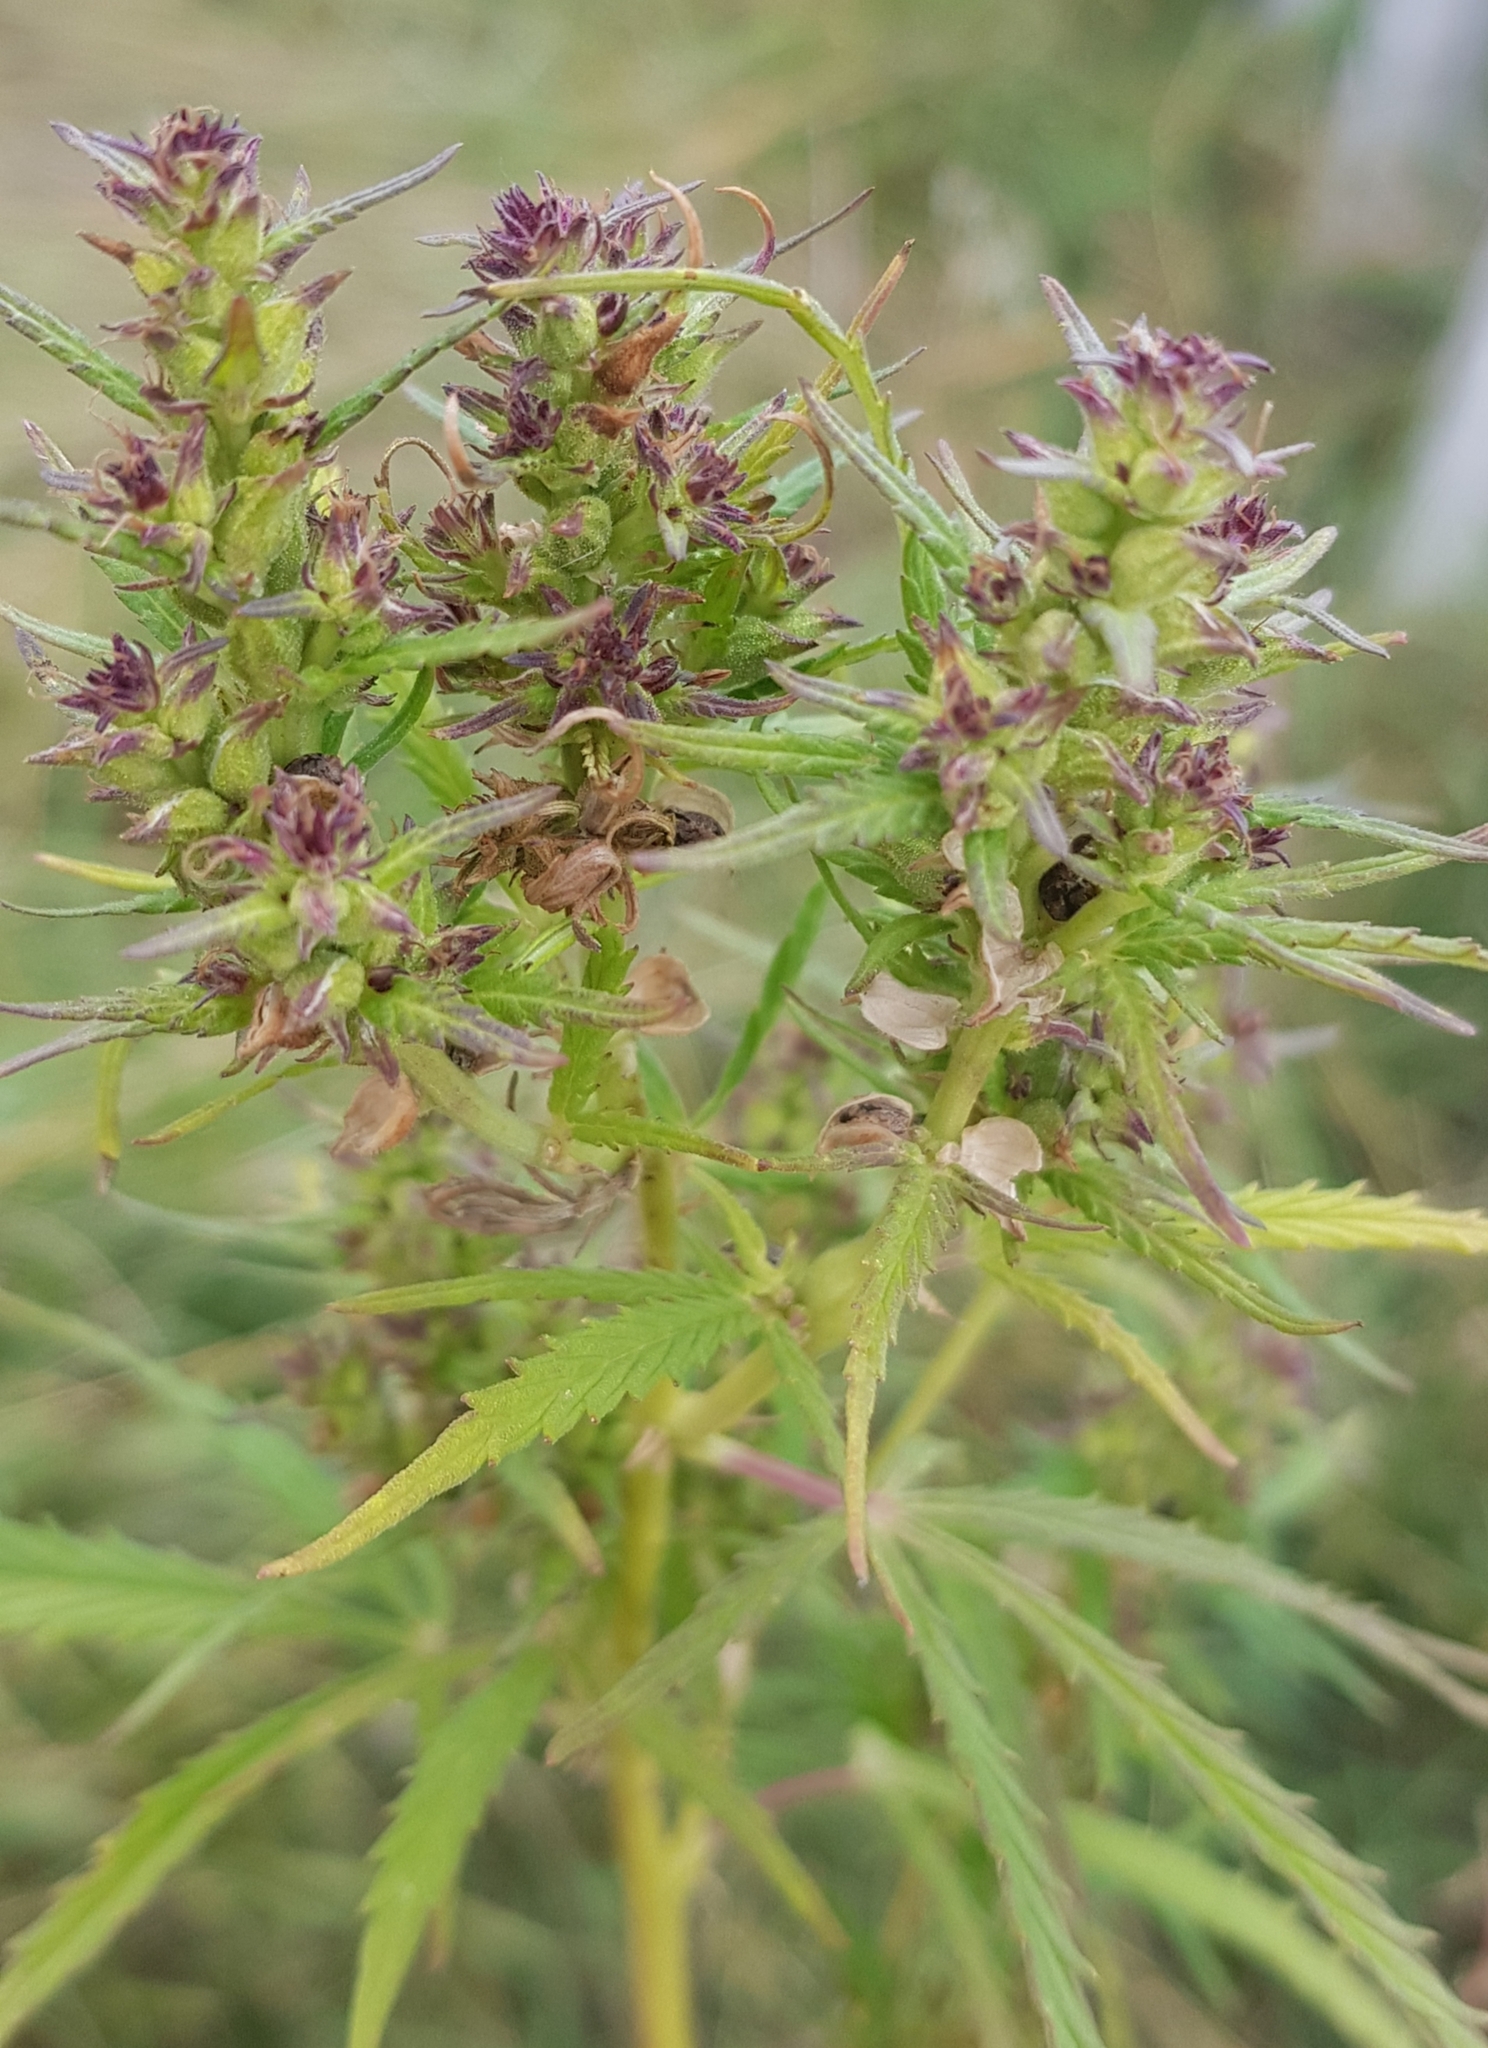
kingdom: Plantae
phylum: Tracheophyta
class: Magnoliopsida
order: Rosales
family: Cannabaceae
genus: Cannabis
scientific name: Cannabis sativa
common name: Hemp
